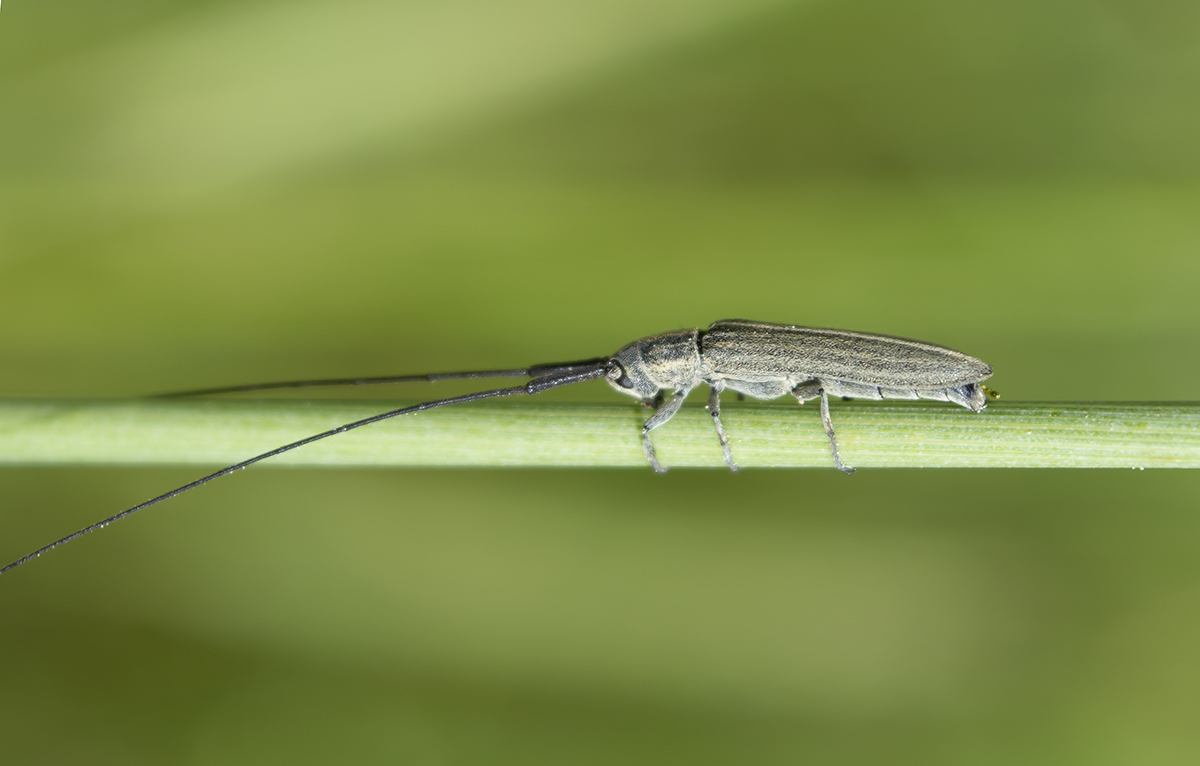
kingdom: Animalia
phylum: Arthropoda
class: Insecta
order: Coleoptera
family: Cerambycidae
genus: Calamobius
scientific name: Calamobius filum
